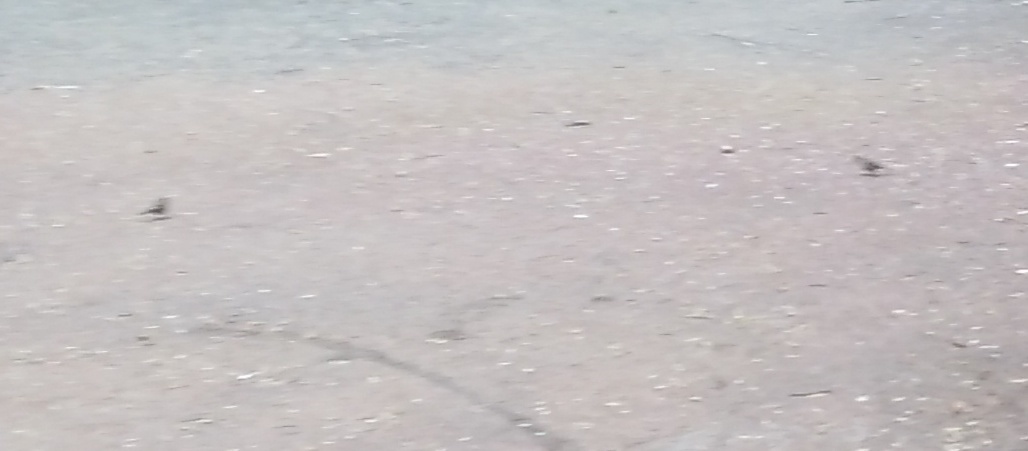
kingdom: Animalia
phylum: Chordata
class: Aves
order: Passeriformes
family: Fringillidae
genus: Fringilla
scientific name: Fringilla coelebs
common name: Common chaffinch
